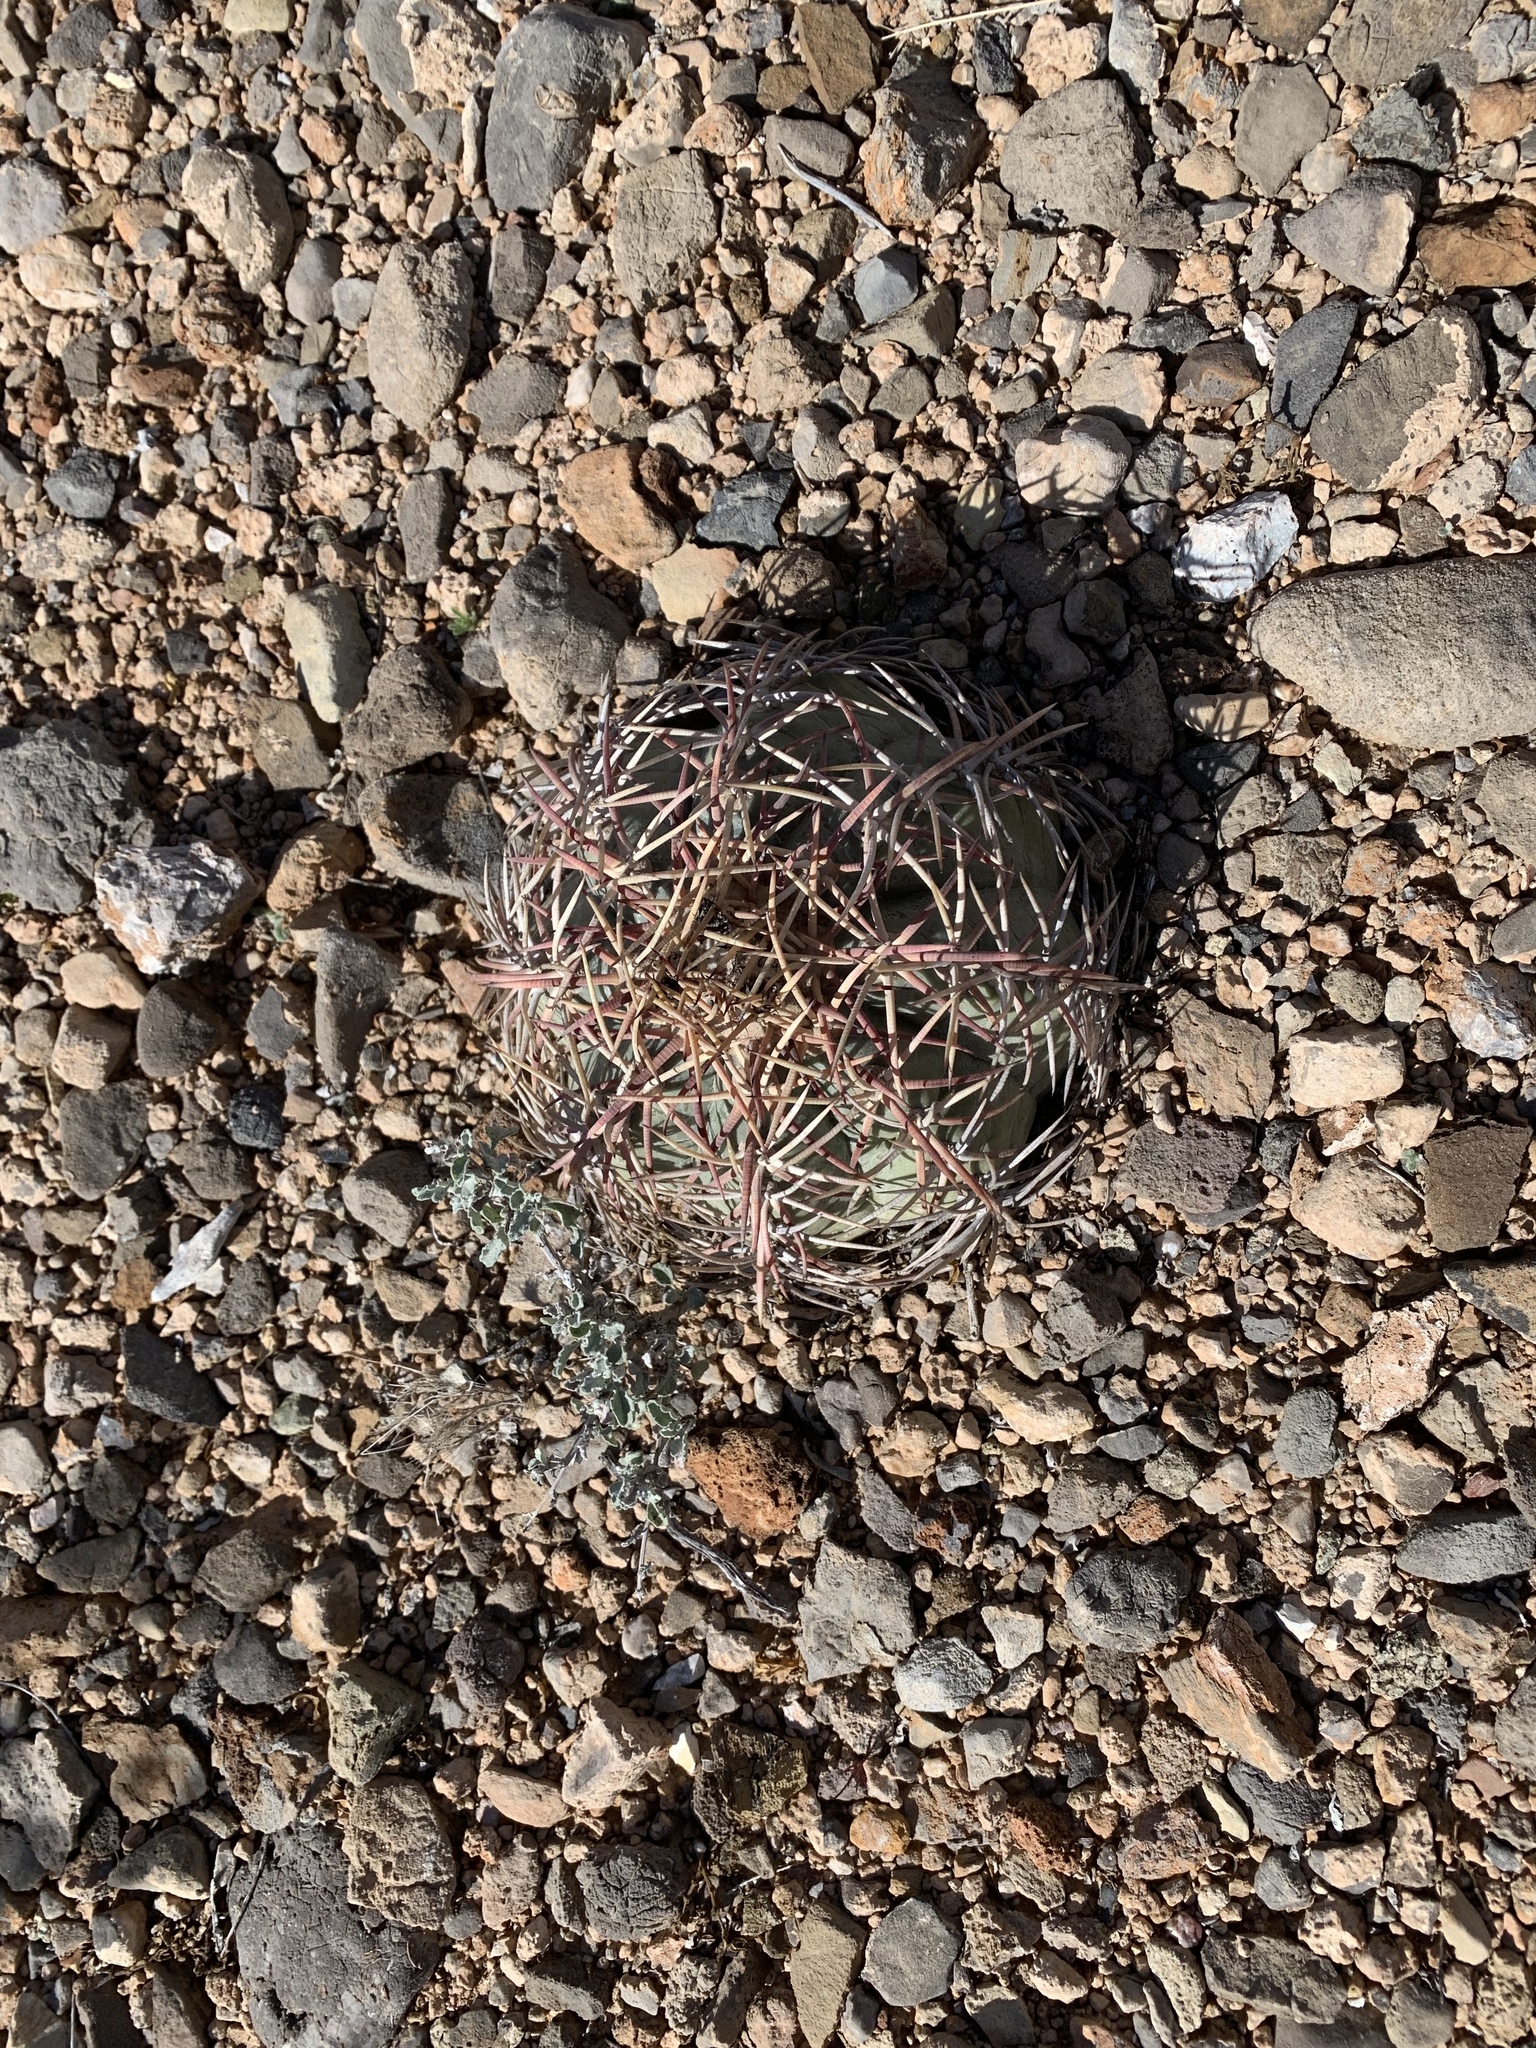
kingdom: Plantae
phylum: Tracheophyta
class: Magnoliopsida
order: Caryophyllales
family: Cactaceae
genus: Echinocactus
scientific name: Echinocactus horizonthalonius
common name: Devilshead
